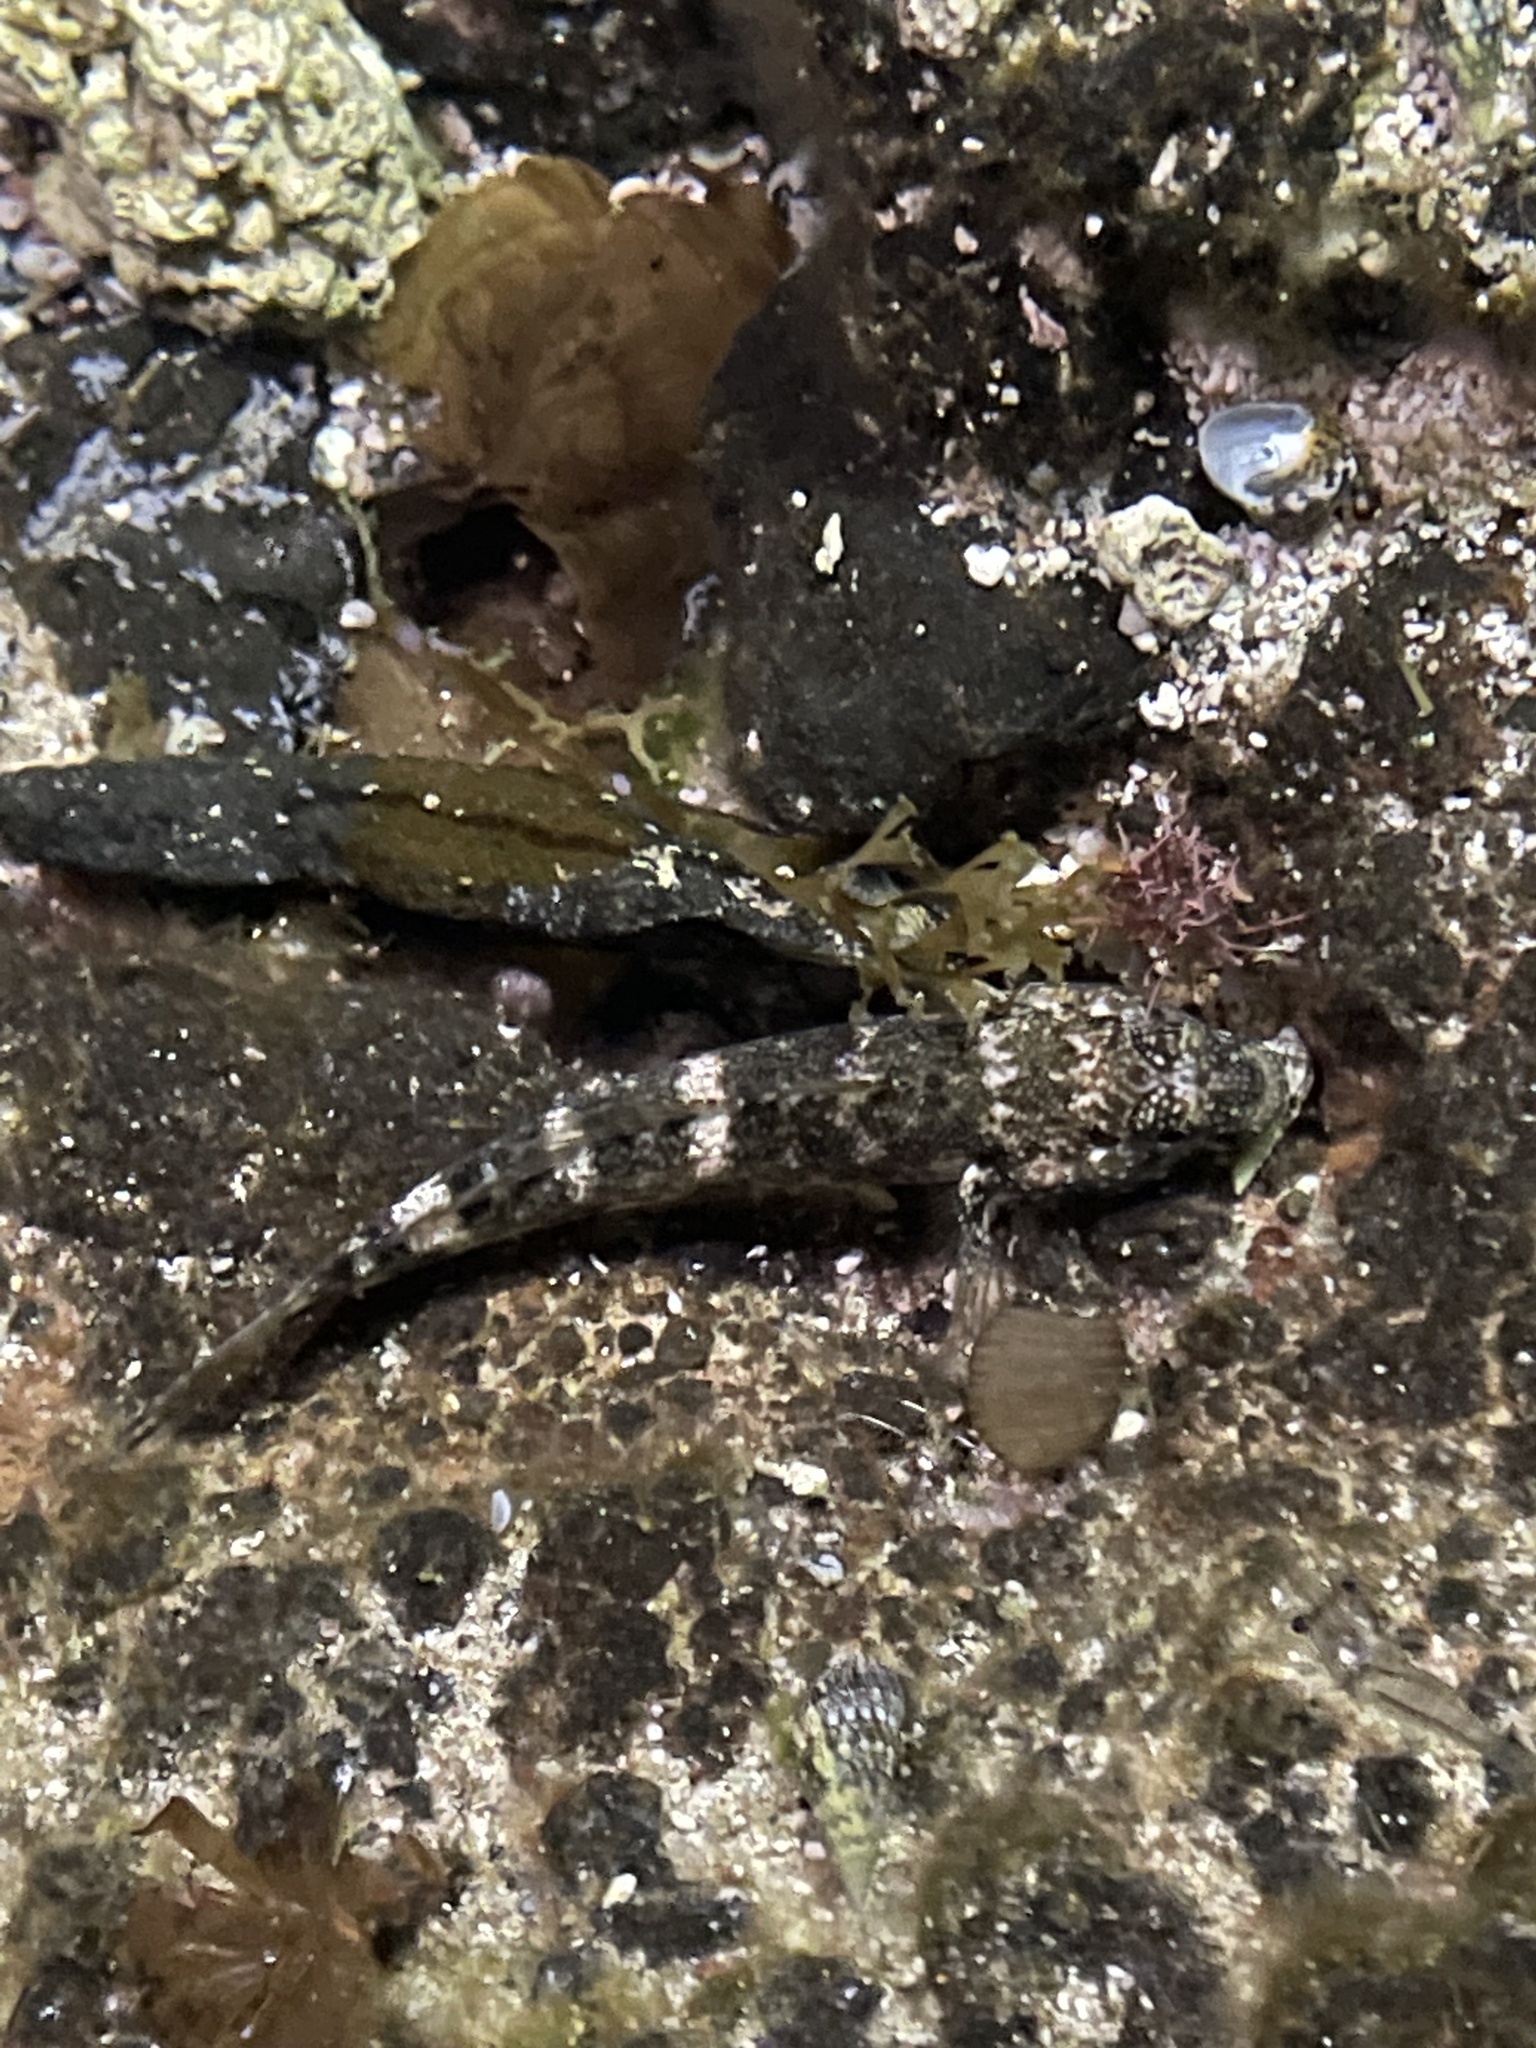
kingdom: Animalia
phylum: Chordata
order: Perciformes
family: Gobiidae
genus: Mauligobius
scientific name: Mauligobius maderensis
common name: Rock goby
